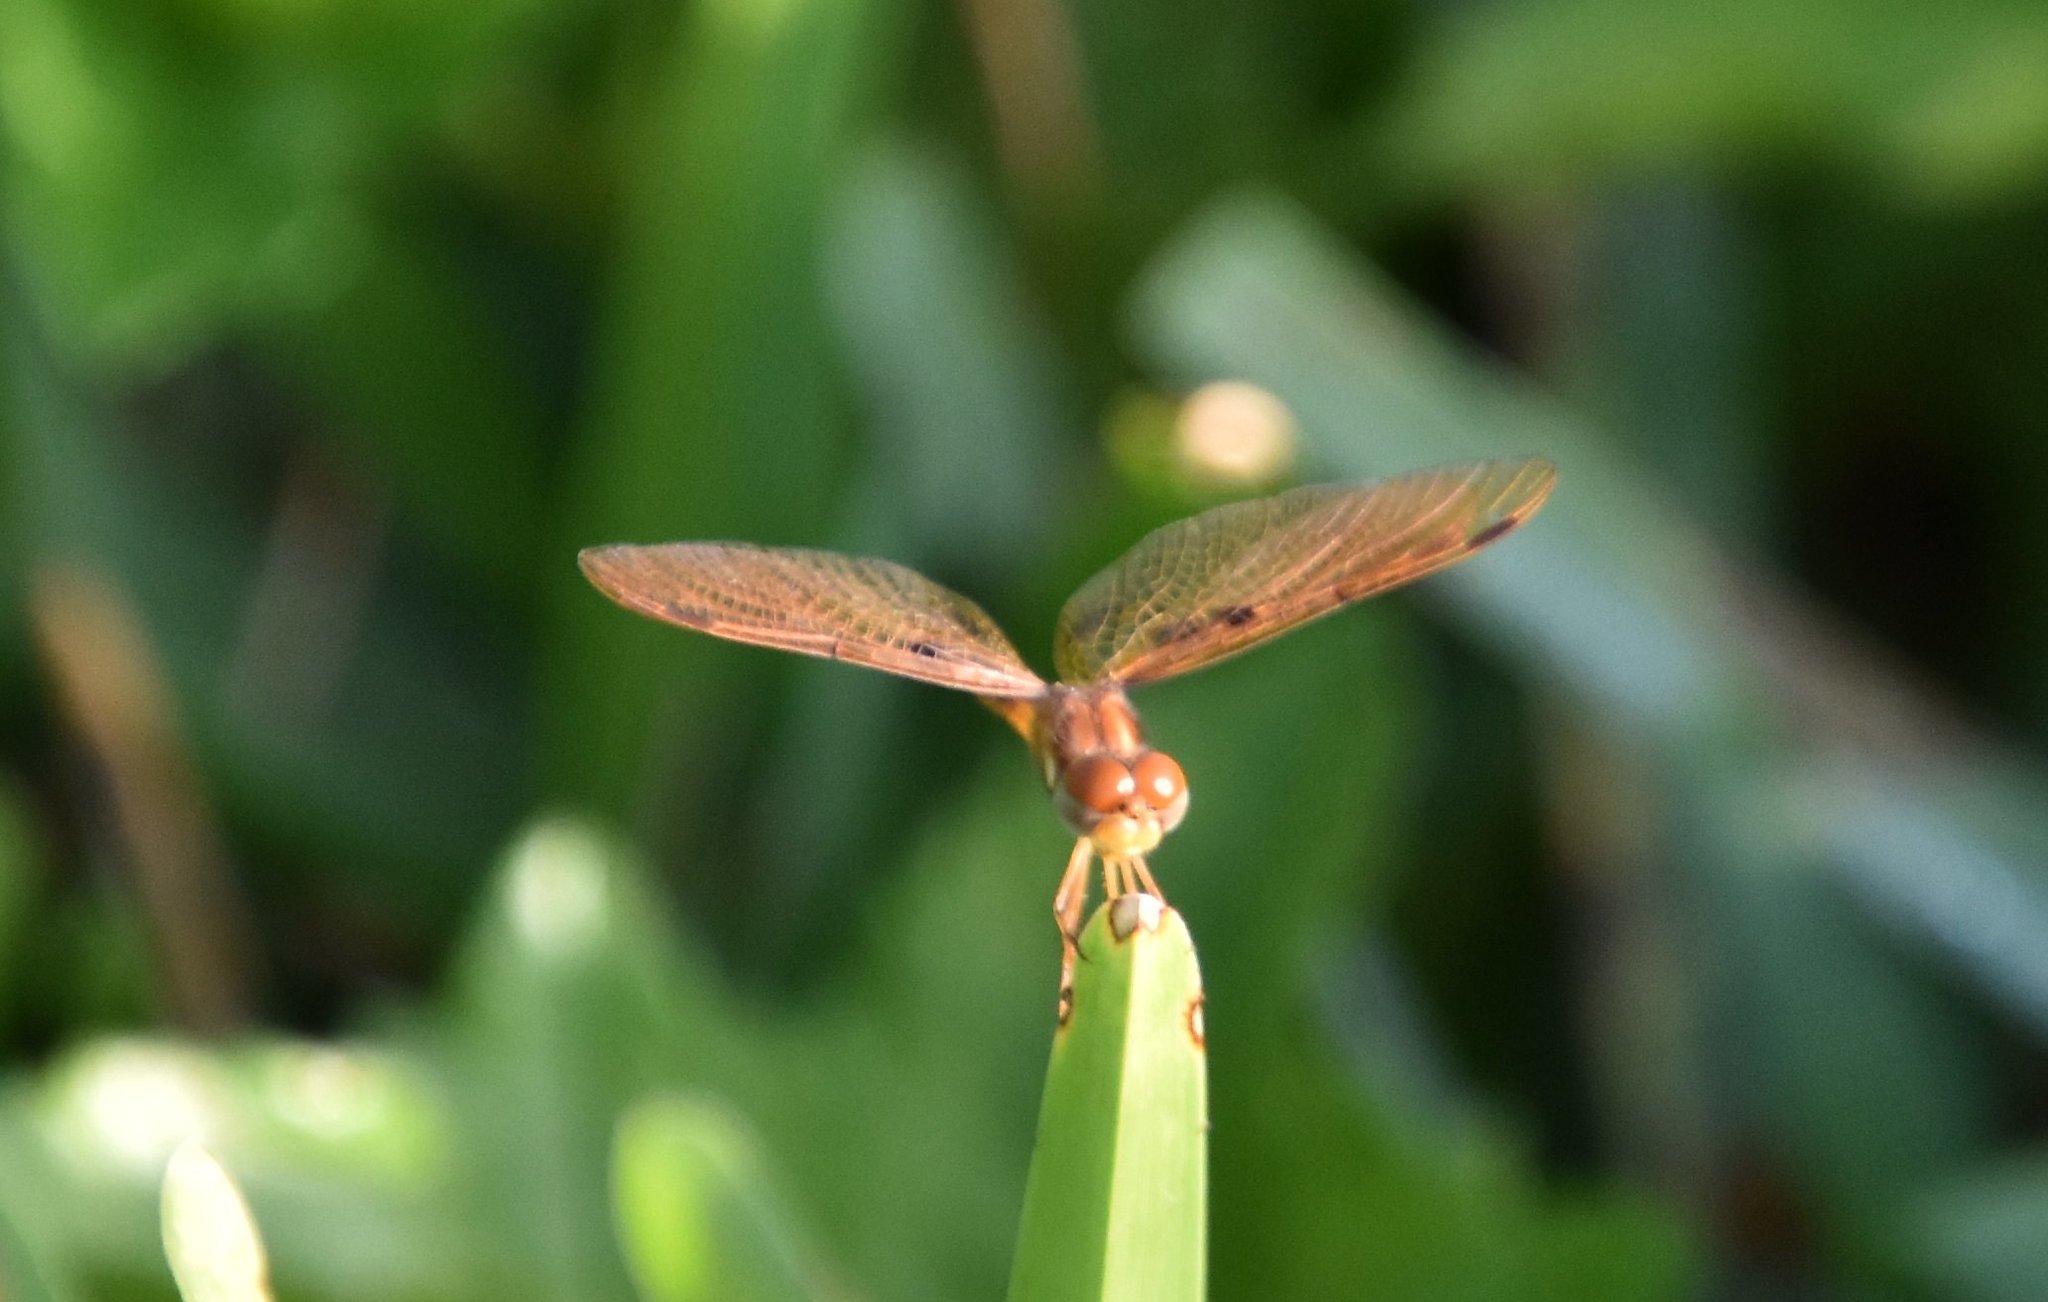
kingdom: Animalia
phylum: Arthropoda
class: Insecta
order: Odonata
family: Libellulidae
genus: Perithemis
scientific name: Perithemis tenera
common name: Eastern amberwing
